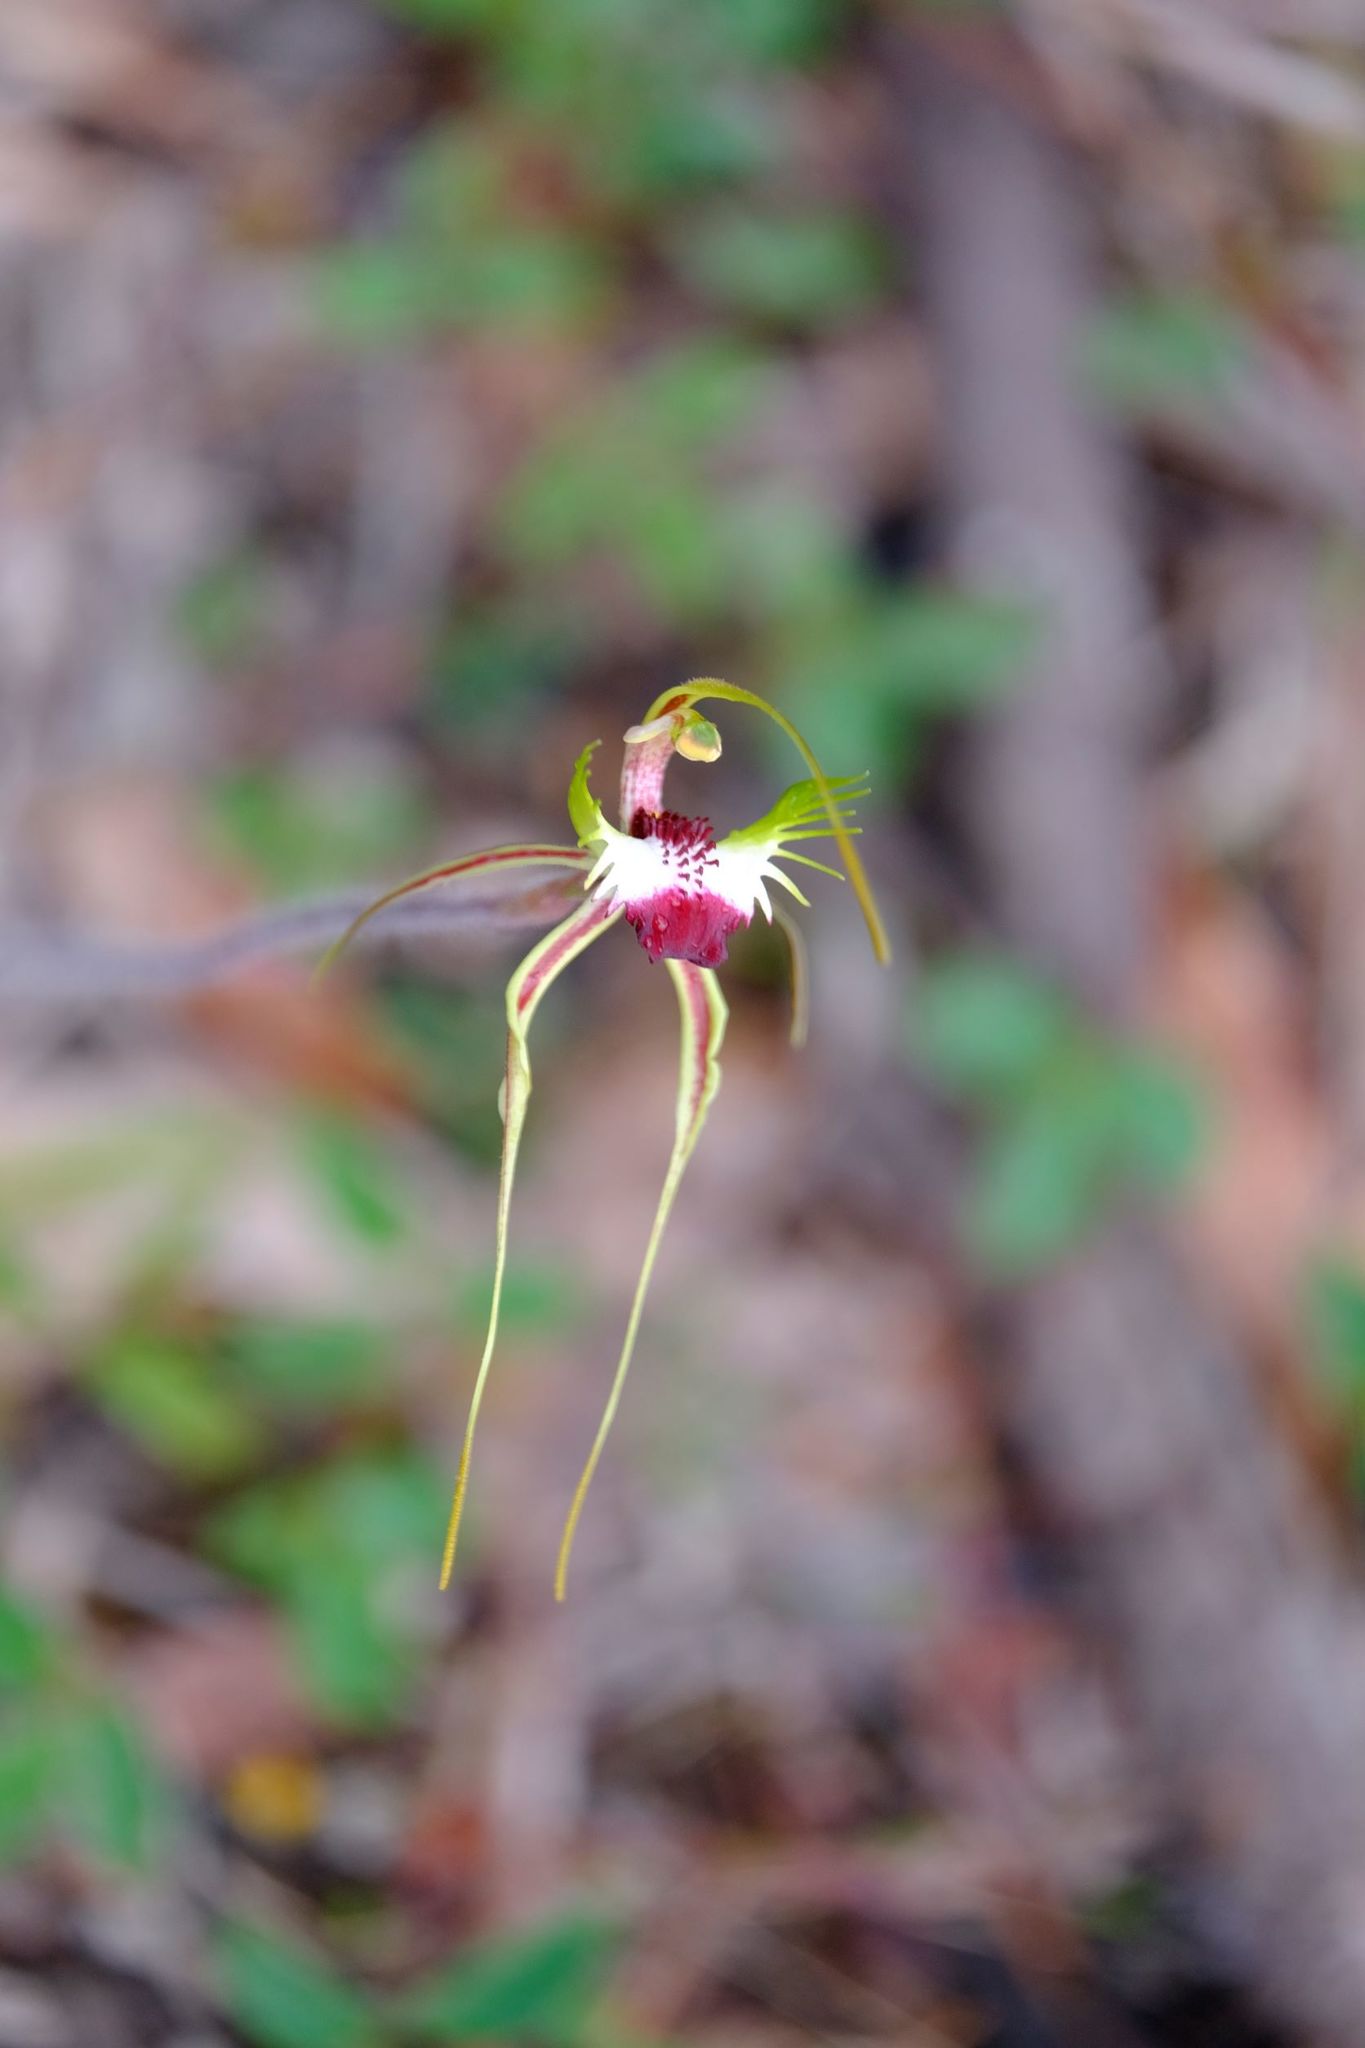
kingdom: Plantae
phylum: Tracheophyta
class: Liliopsida
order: Asparagales
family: Orchidaceae
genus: Caladenia
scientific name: Caladenia tentaculata
